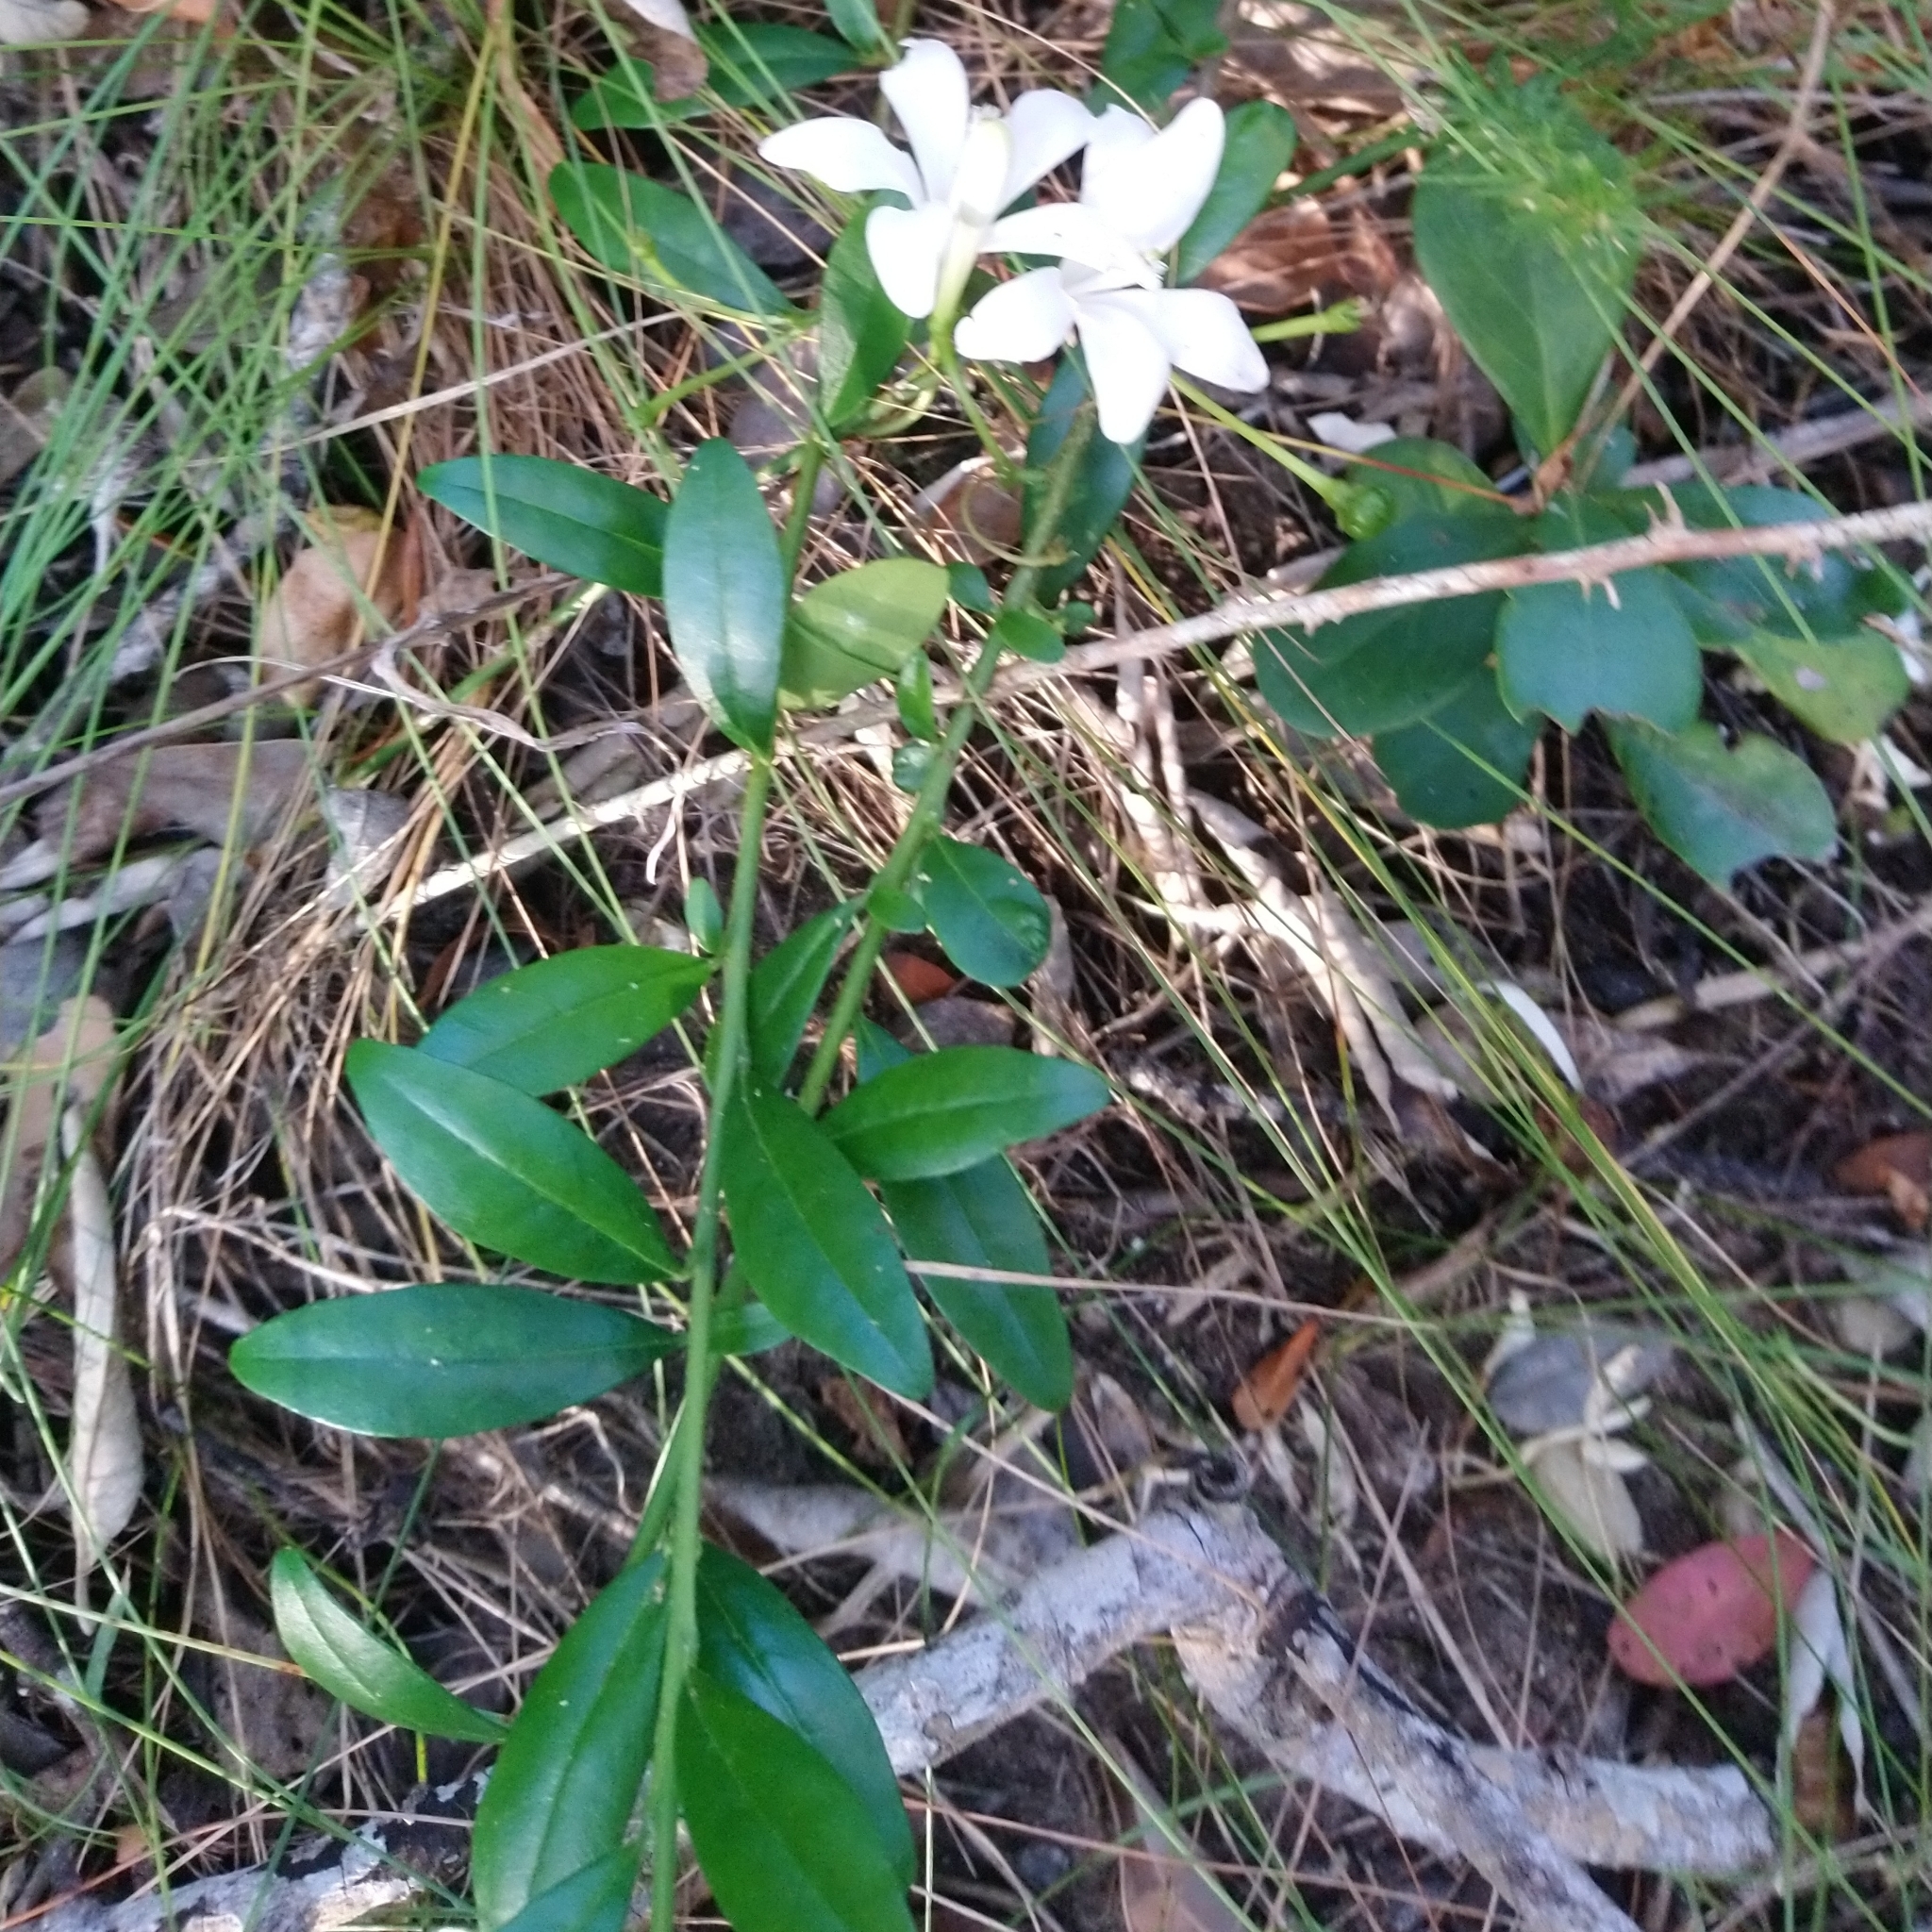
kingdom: Plantae
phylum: Tracheophyta
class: Magnoliopsida
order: Sapindales
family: Meliaceae
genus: Turraea
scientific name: Turraea obtusifolia
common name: Small honeysuckle tree
